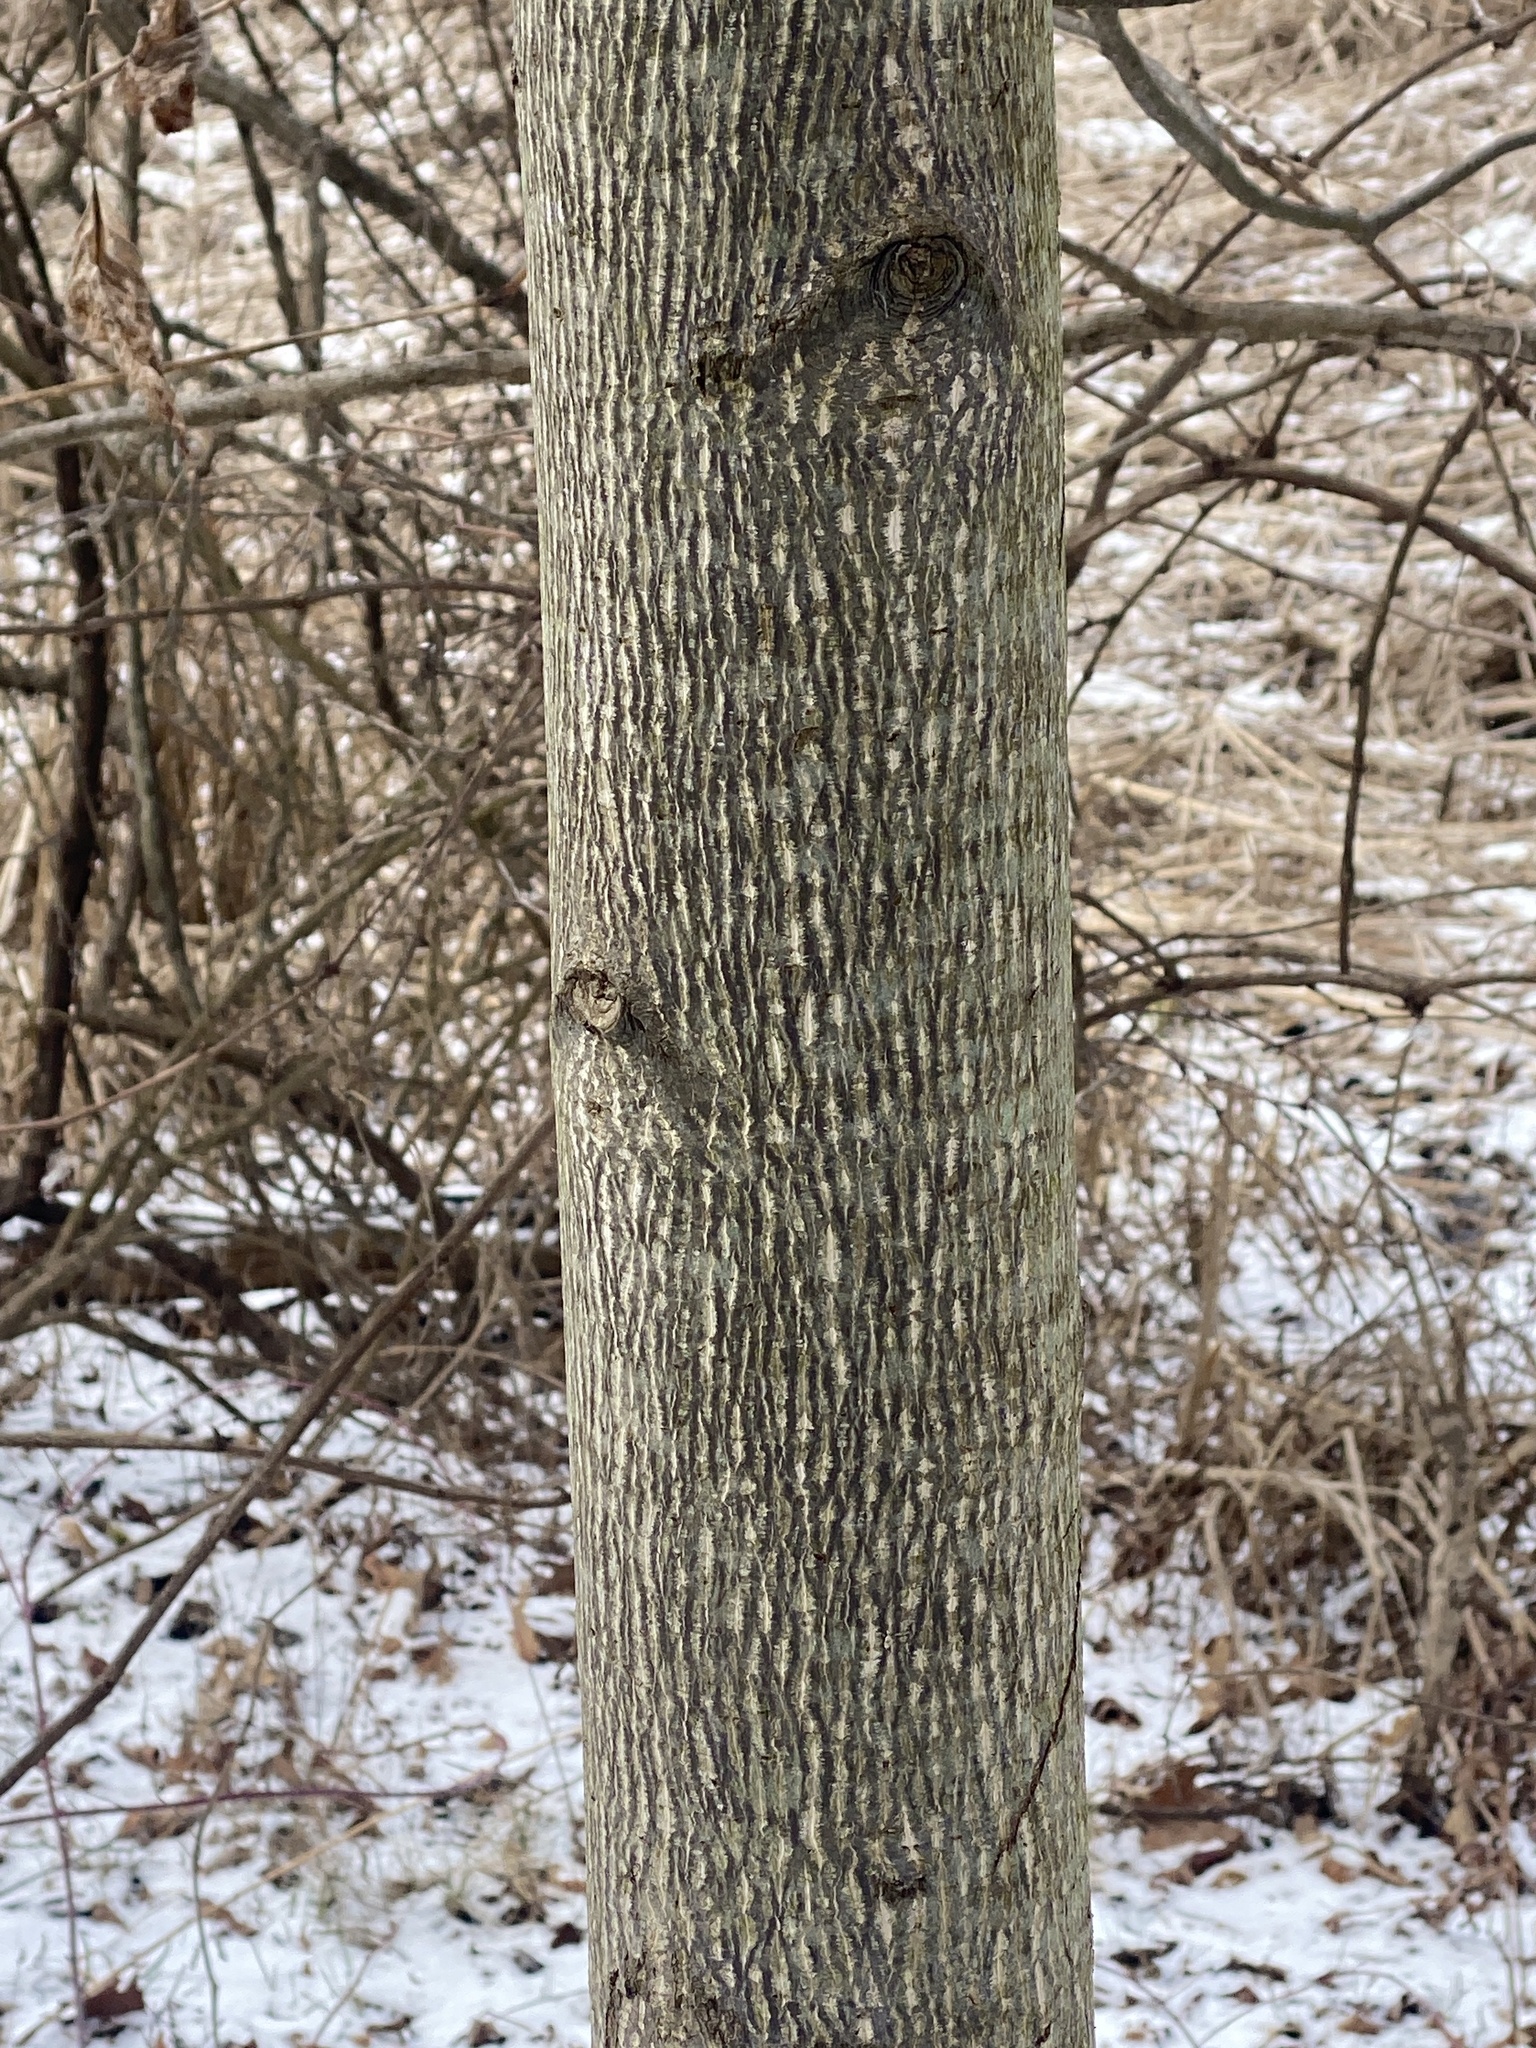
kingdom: Plantae
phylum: Tracheophyta
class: Magnoliopsida
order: Magnoliales
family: Magnoliaceae
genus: Liriodendron
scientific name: Liriodendron tulipifera
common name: Tulip tree
